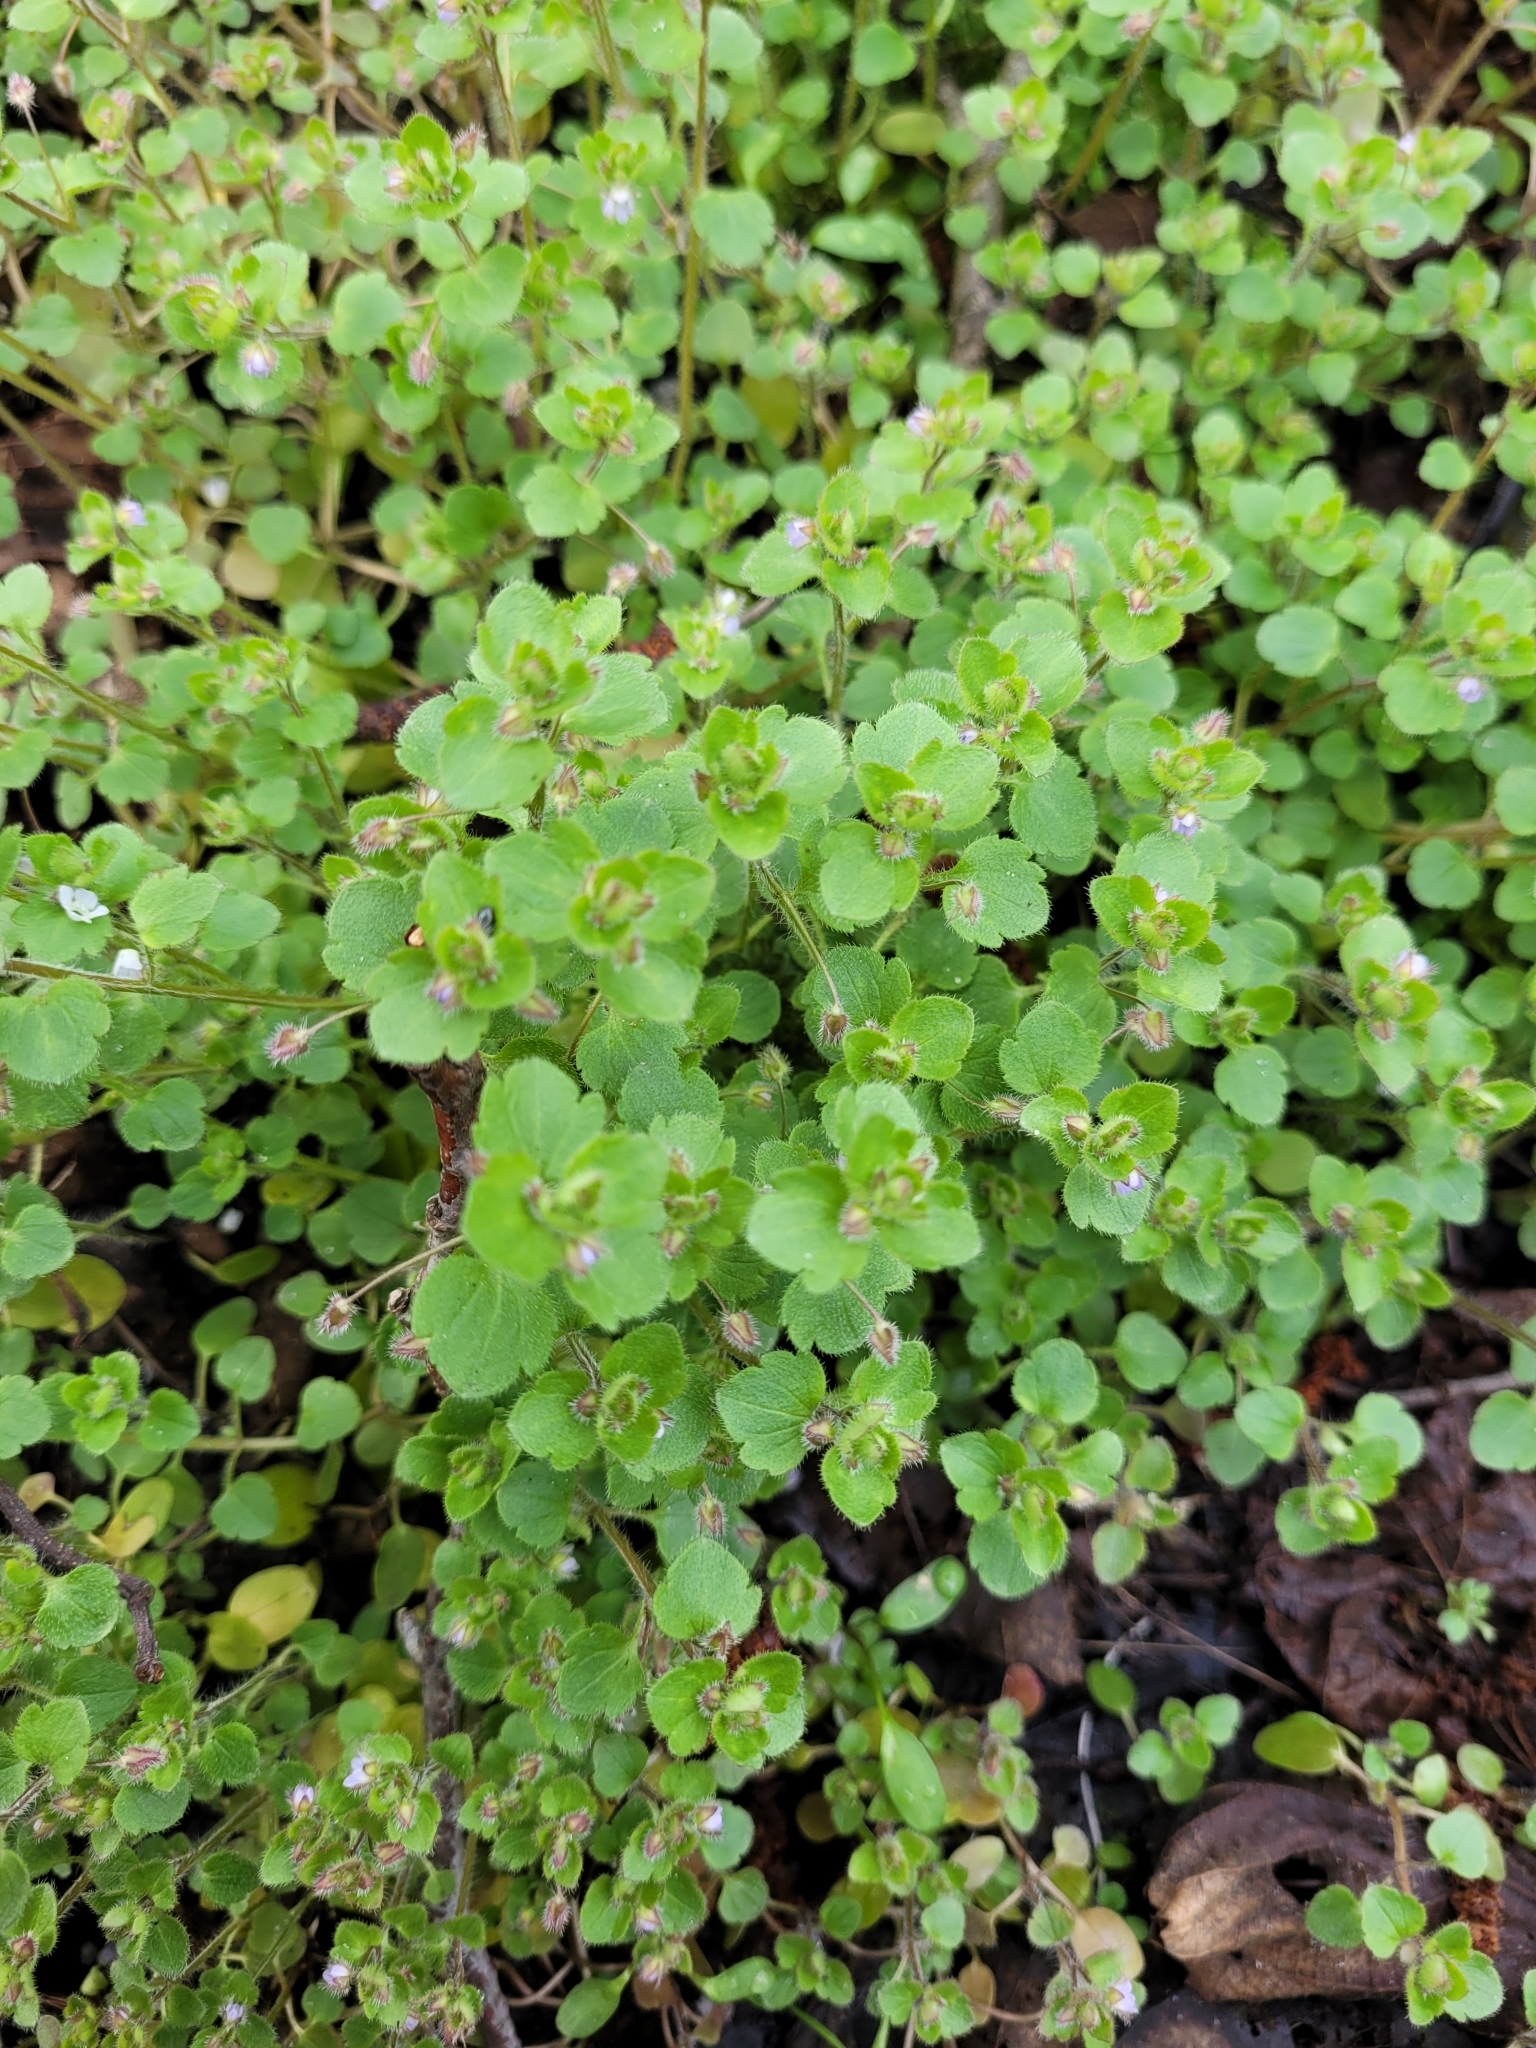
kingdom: Plantae
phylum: Tracheophyta
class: Magnoliopsida
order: Lamiales
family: Plantaginaceae
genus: Veronica
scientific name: Veronica sublobata
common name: False ivy-leaved speedwell
